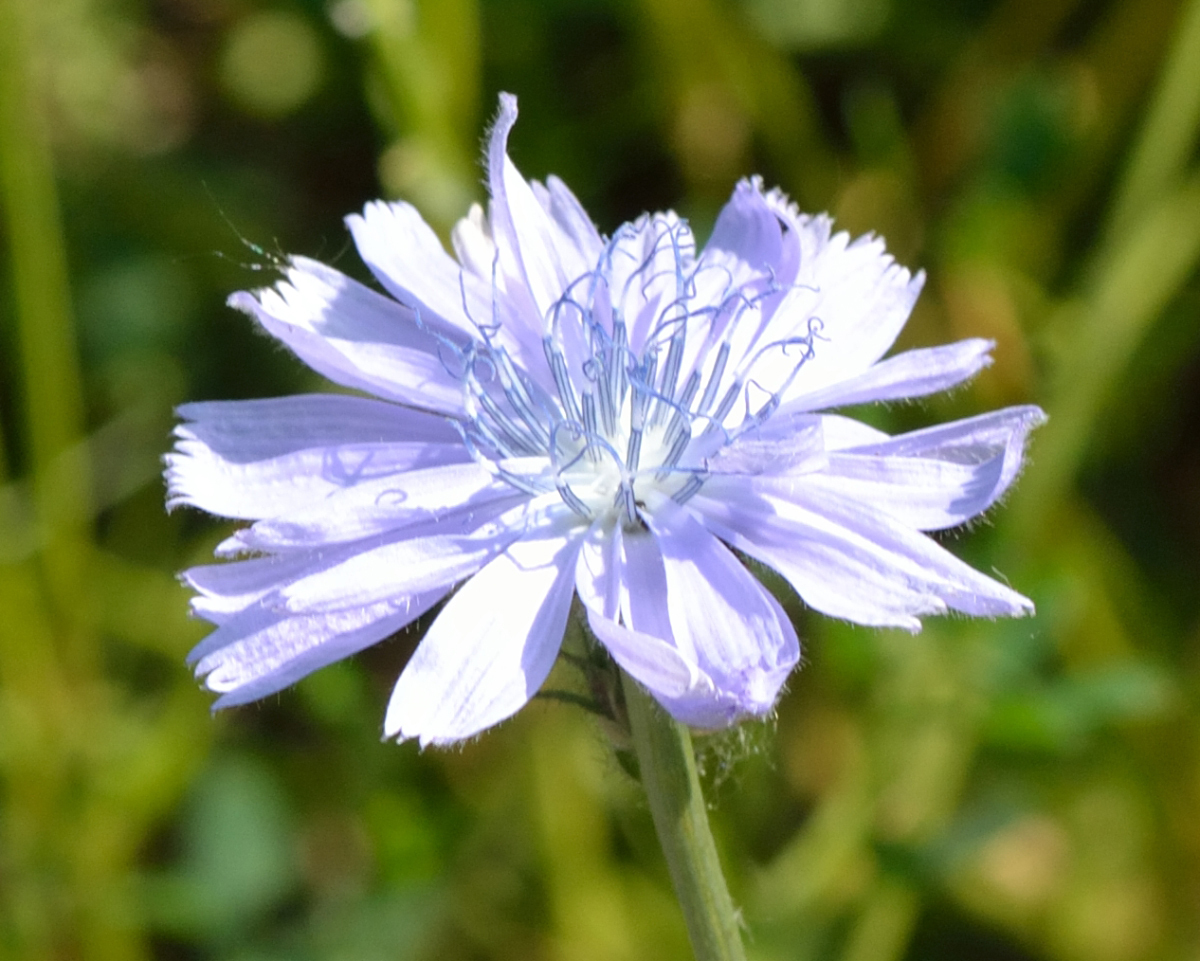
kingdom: Plantae
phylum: Tracheophyta
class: Magnoliopsida
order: Asterales
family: Asteraceae
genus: Cichorium
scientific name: Cichorium intybus
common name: Chicory
